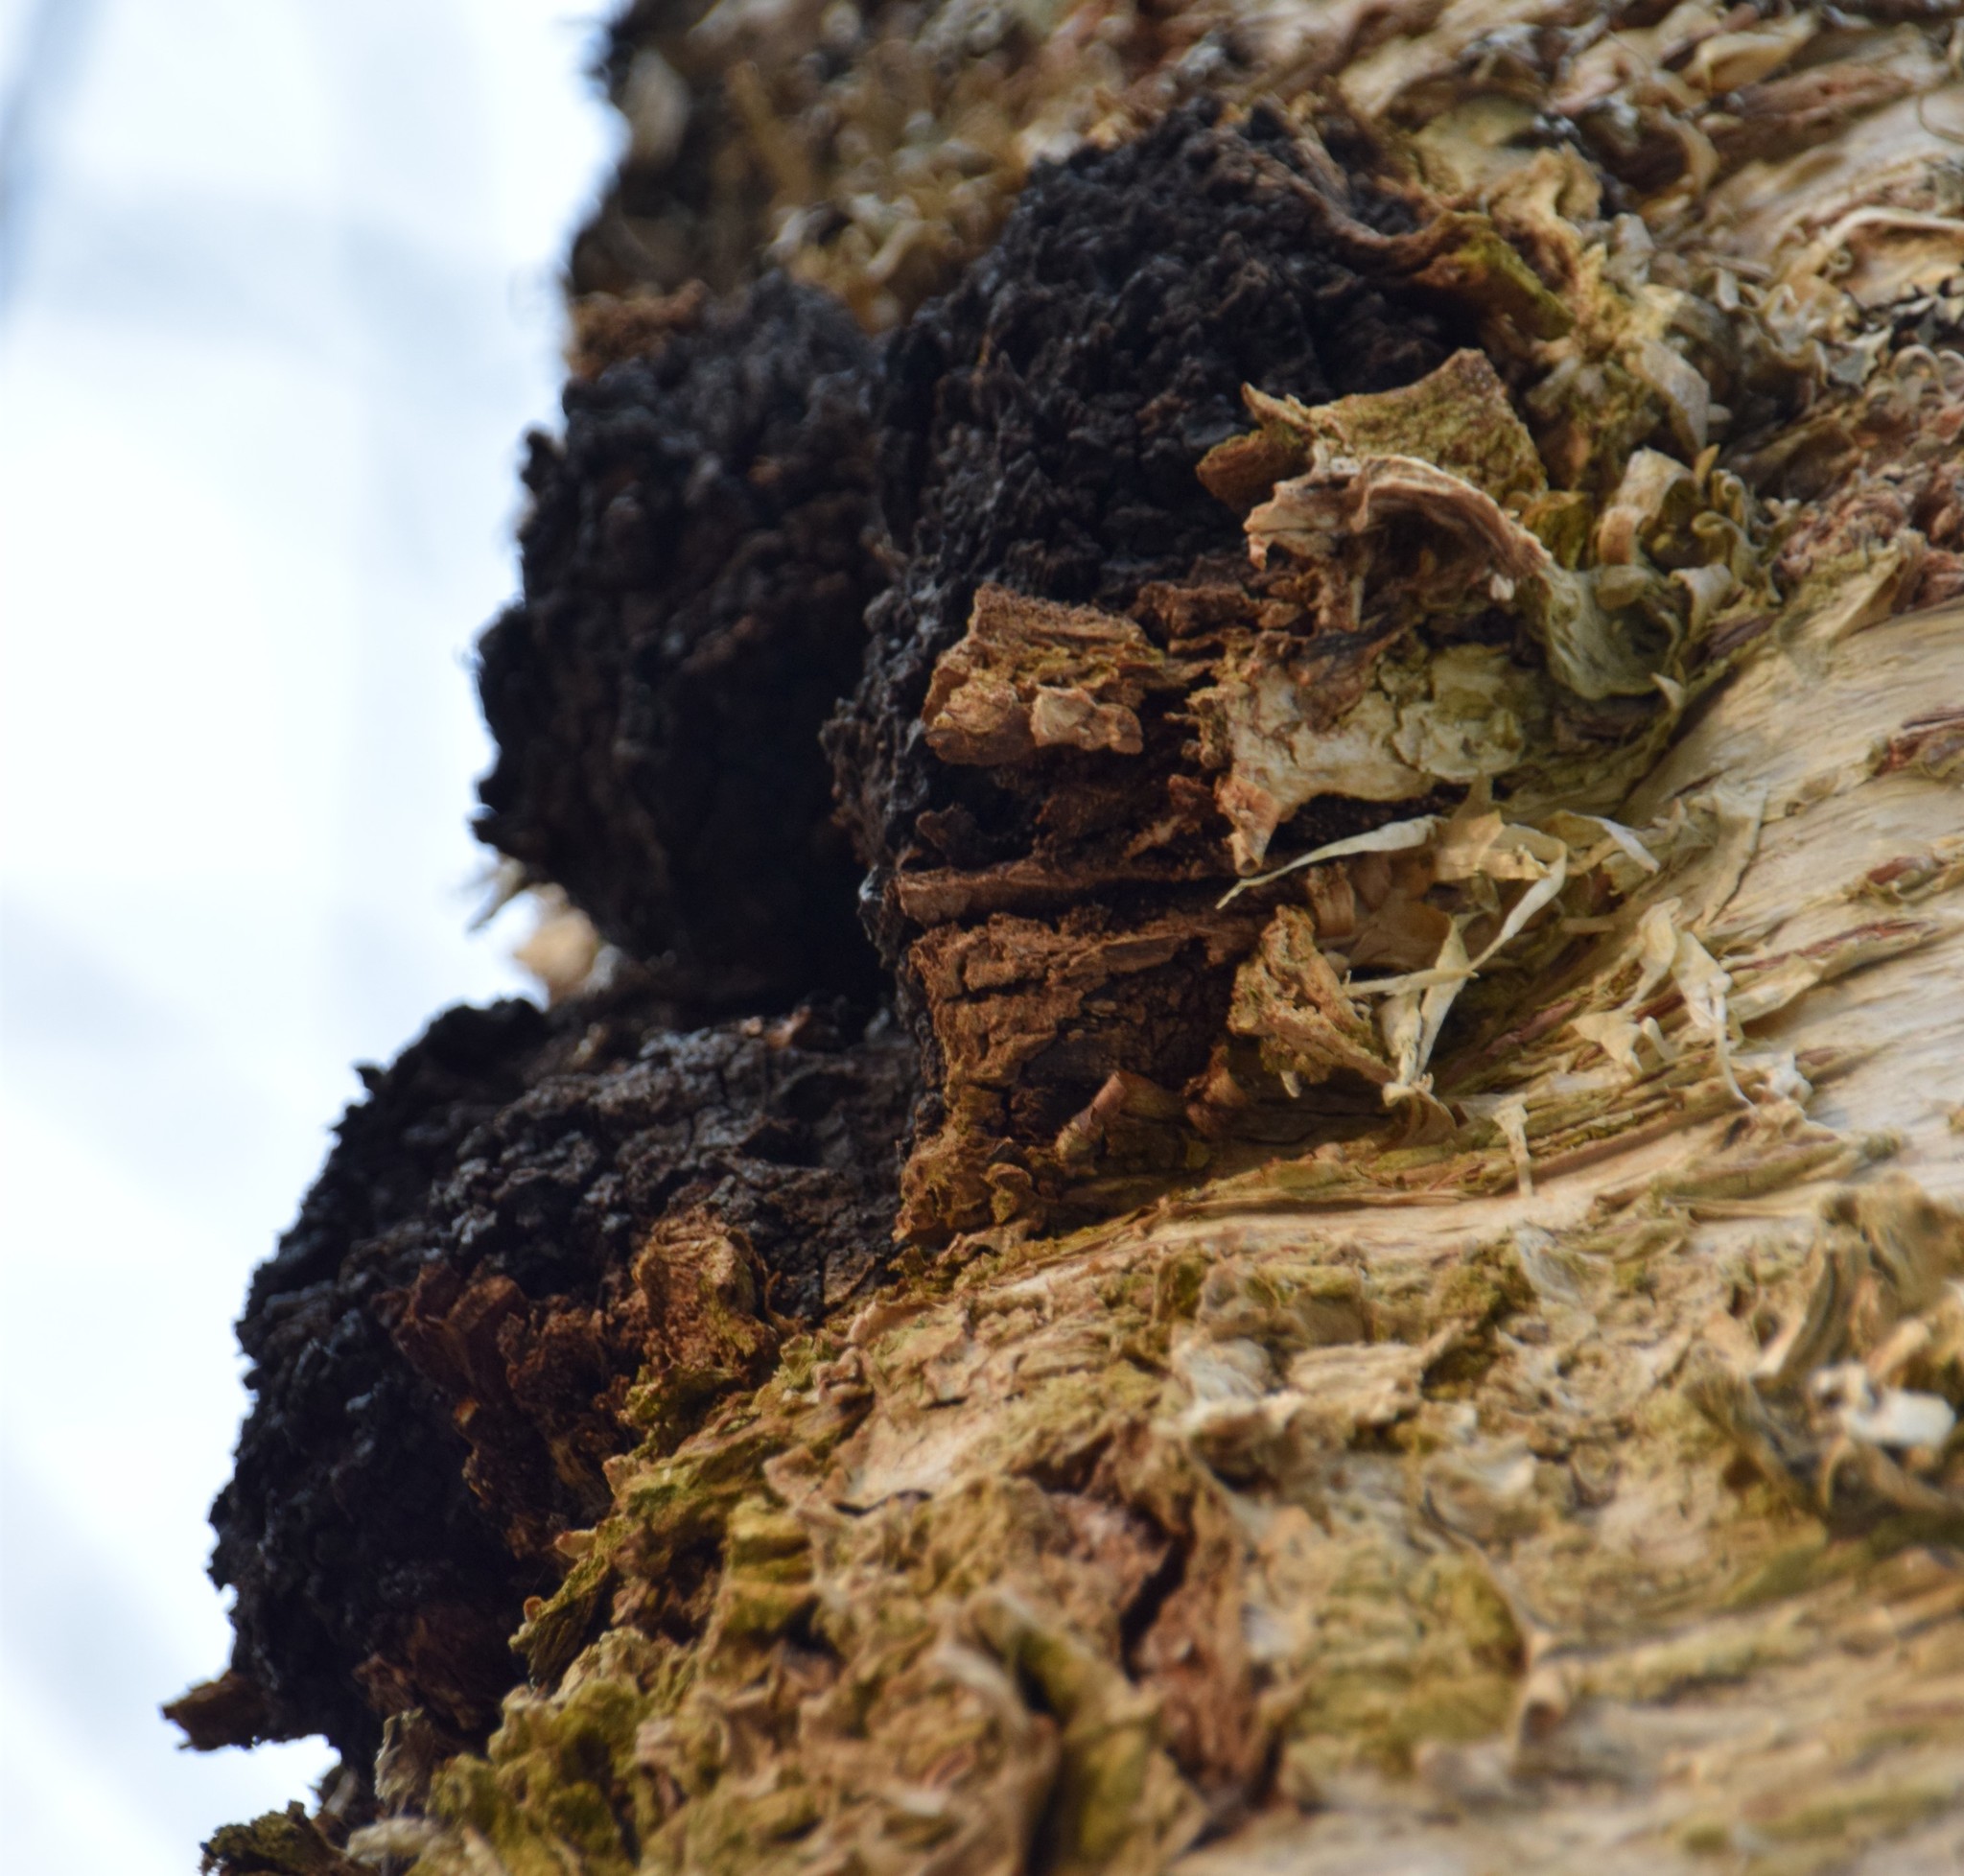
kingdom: Fungi
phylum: Basidiomycota
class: Agaricomycetes
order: Hymenochaetales
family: Hymenochaetaceae
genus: Inonotus
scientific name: Inonotus obliquus
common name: Chaga
